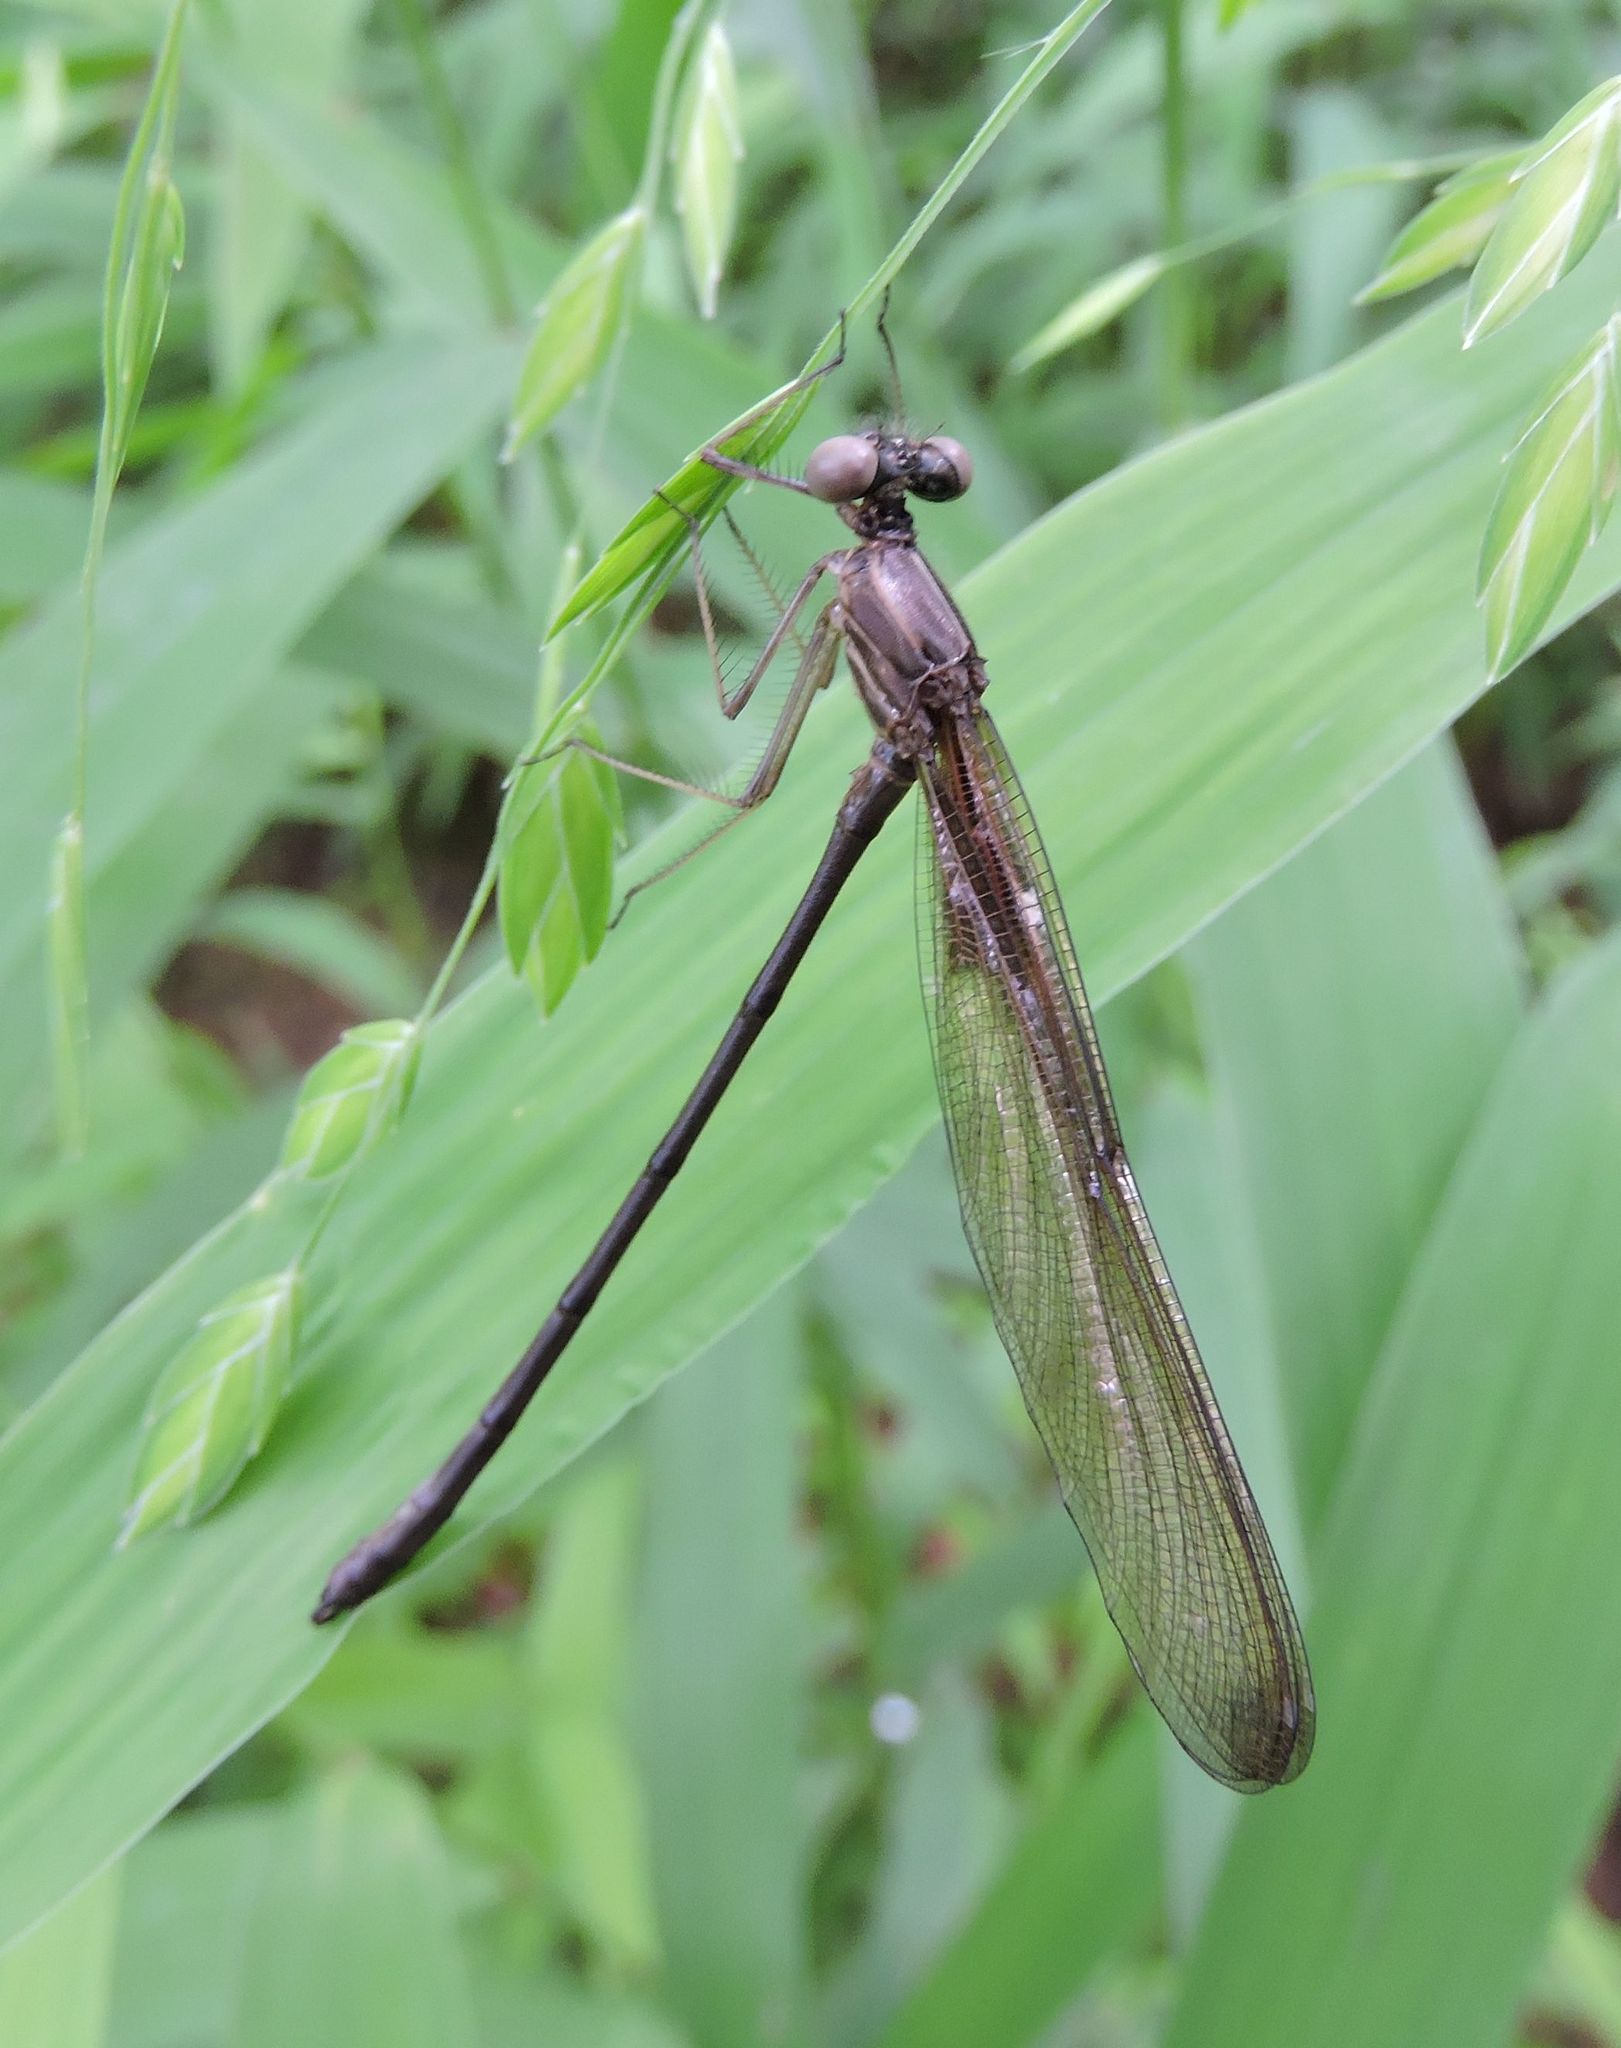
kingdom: Animalia
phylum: Arthropoda
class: Insecta
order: Odonata
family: Calopterygidae
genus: Hetaerina
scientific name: Hetaerina
